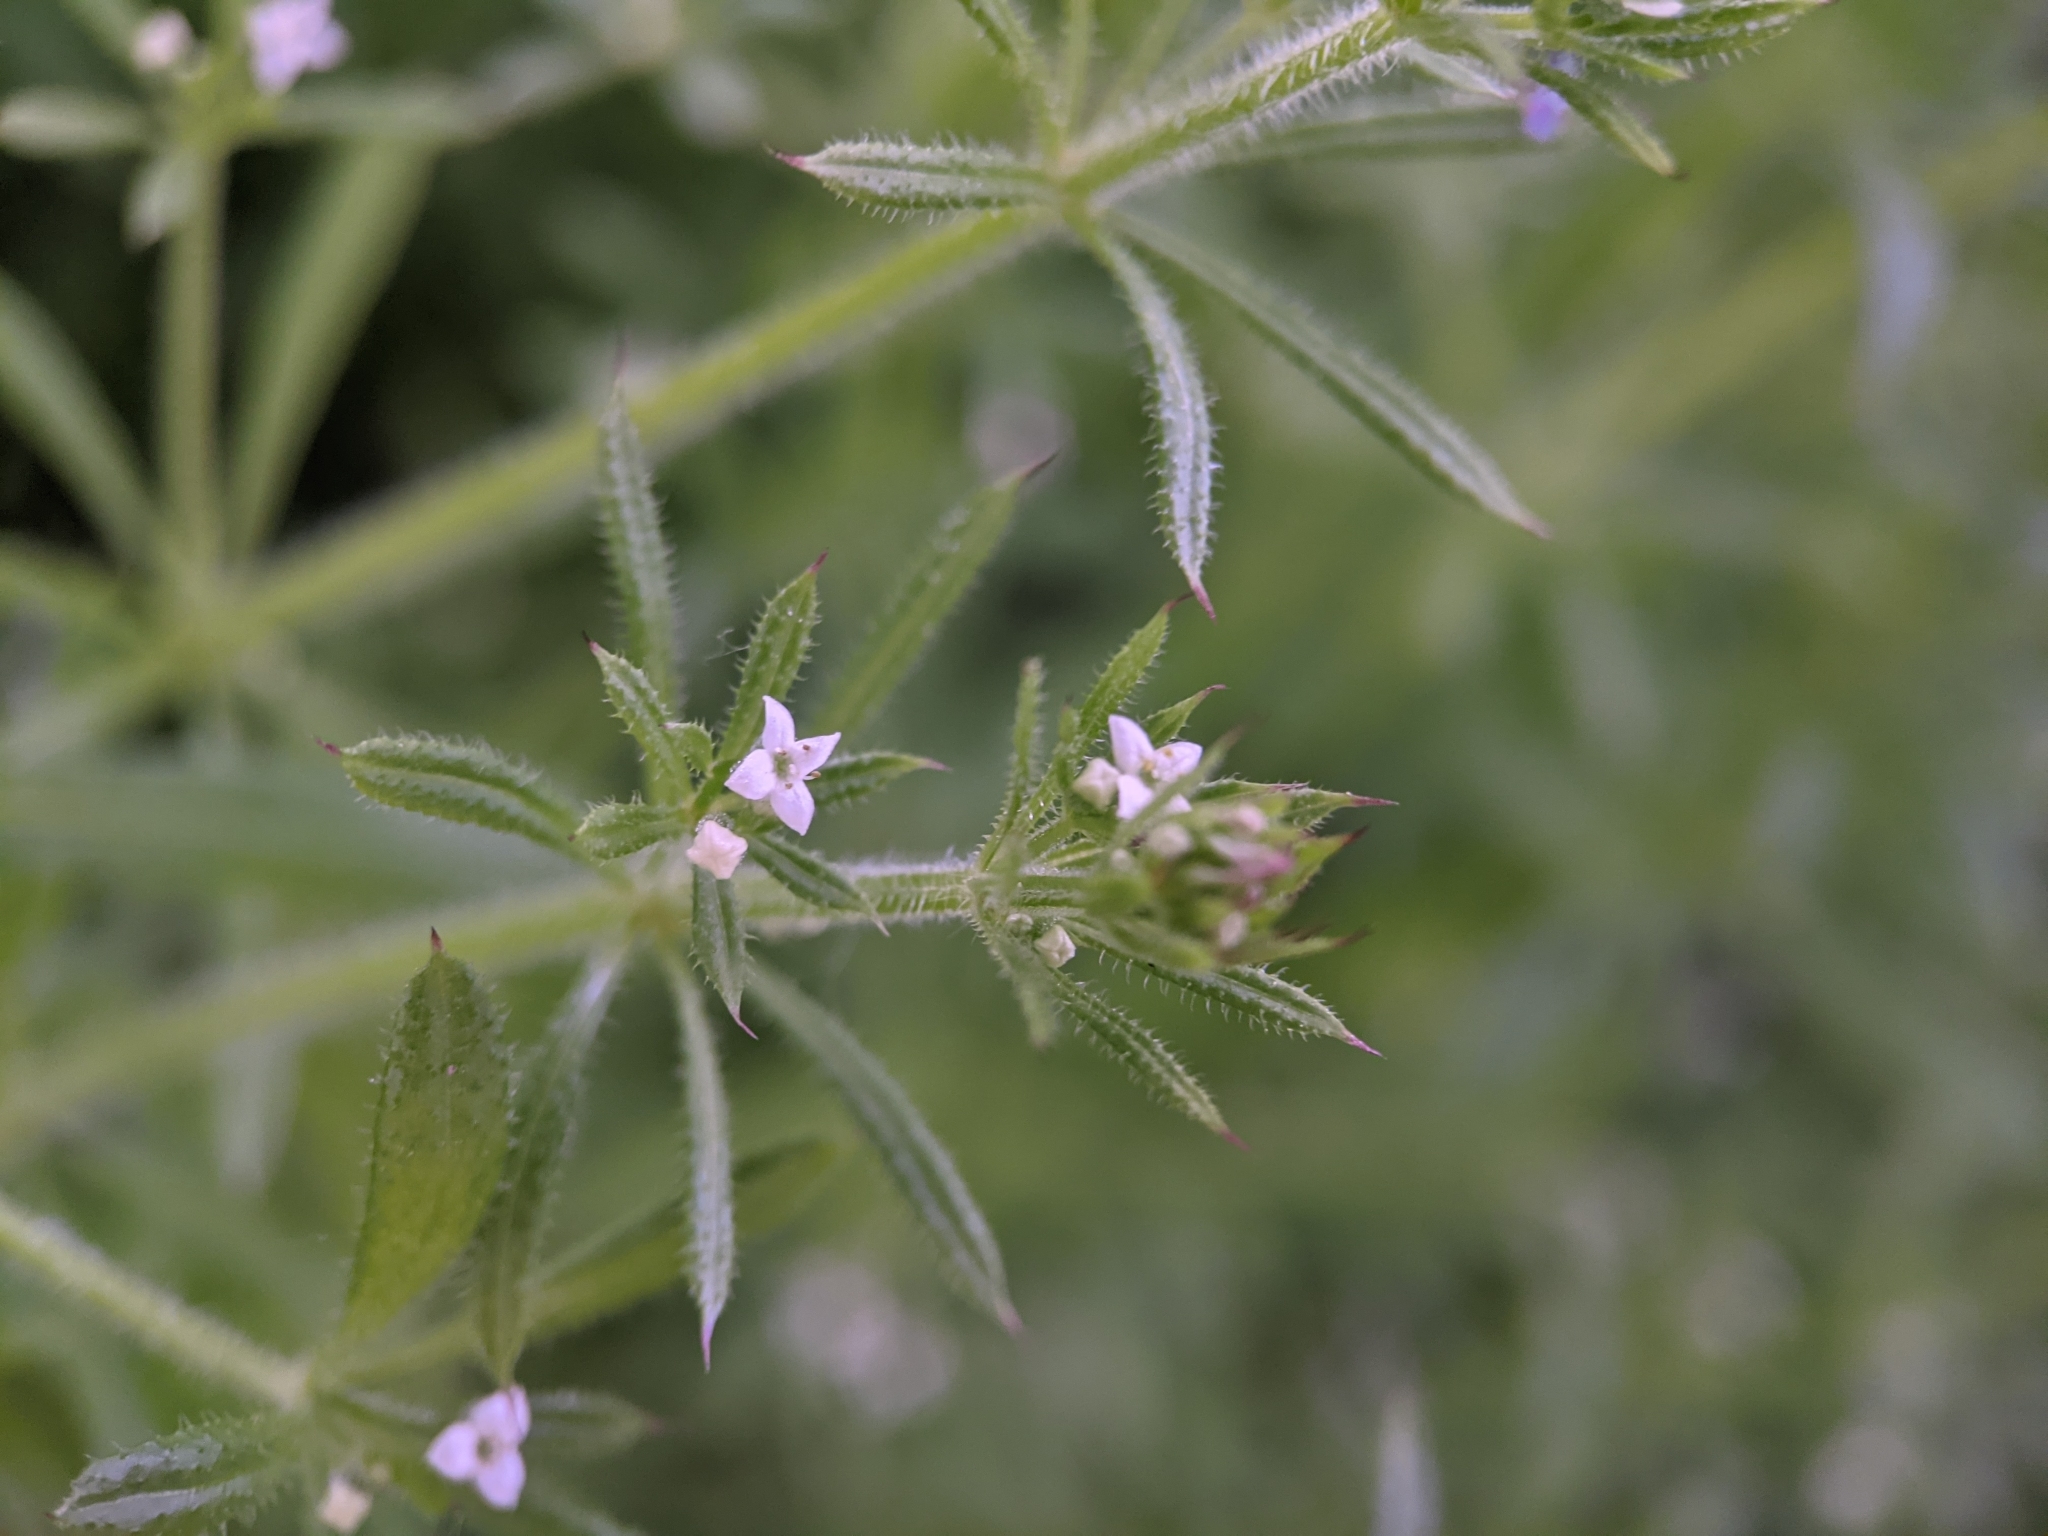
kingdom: Plantae
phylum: Tracheophyta
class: Magnoliopsida
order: Gentianales
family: Rubiaceae
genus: Galium
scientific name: Galium aparine
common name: Cleavers
